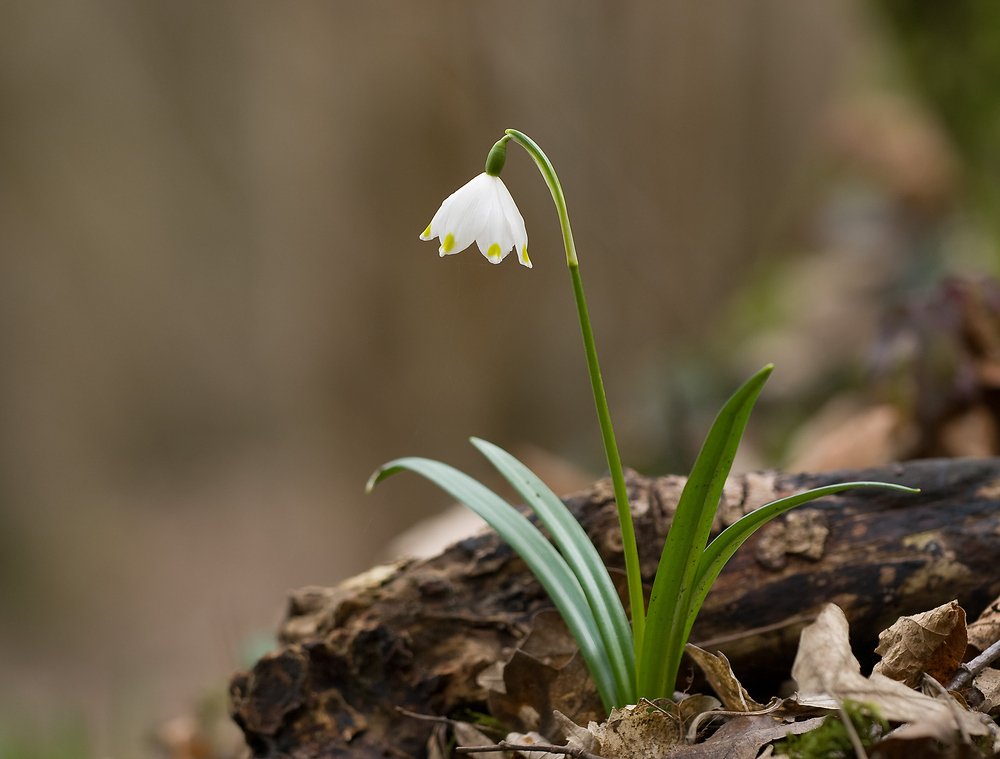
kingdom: Plantae
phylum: Tracheophyta
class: Liliopsida
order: Asparagales
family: Amaryllidaceae
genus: Leucojum
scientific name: Leucojum vernum
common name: Spring snowflake
